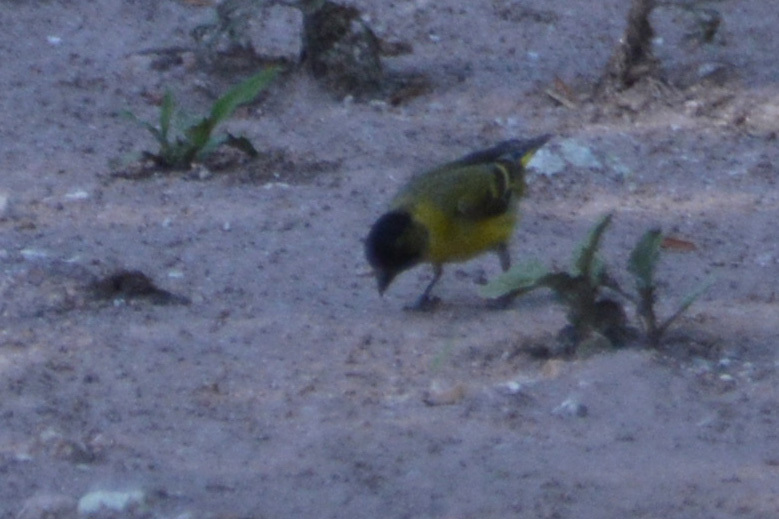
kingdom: Animalia
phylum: Chordata
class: Aves
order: Passeriformes
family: Fringillidae
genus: Spinus
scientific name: Spinus magellanicus
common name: Hooded siskin
